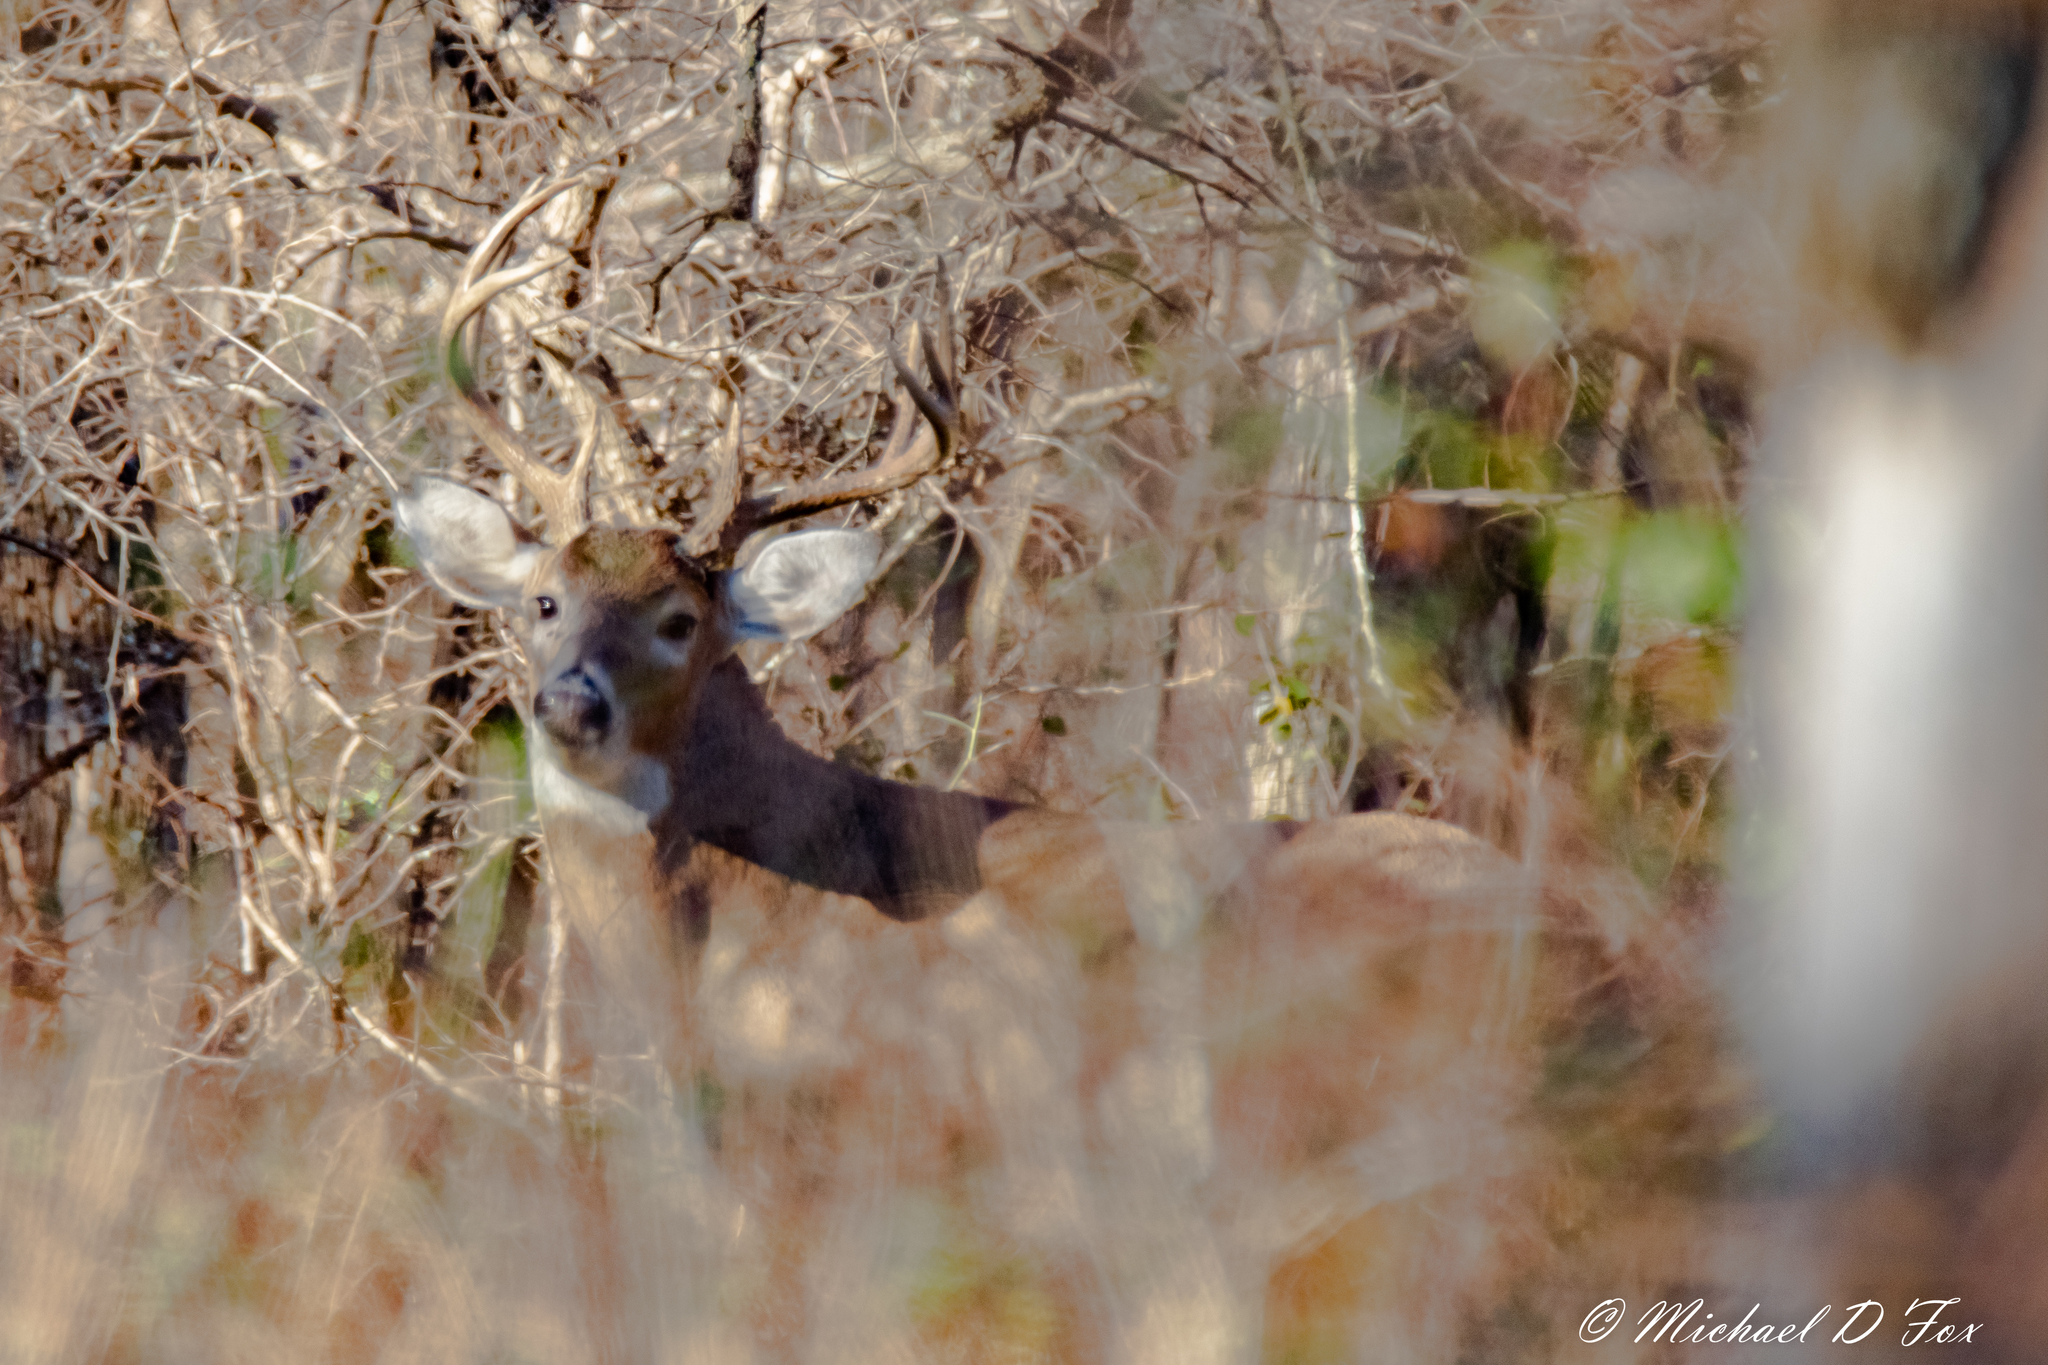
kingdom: Animalia
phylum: Chordata
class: Mammalia
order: Artiodactyla
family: Cervidae
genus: Odocoileus
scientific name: Odocoileus virginianus
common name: White-tailed deer
